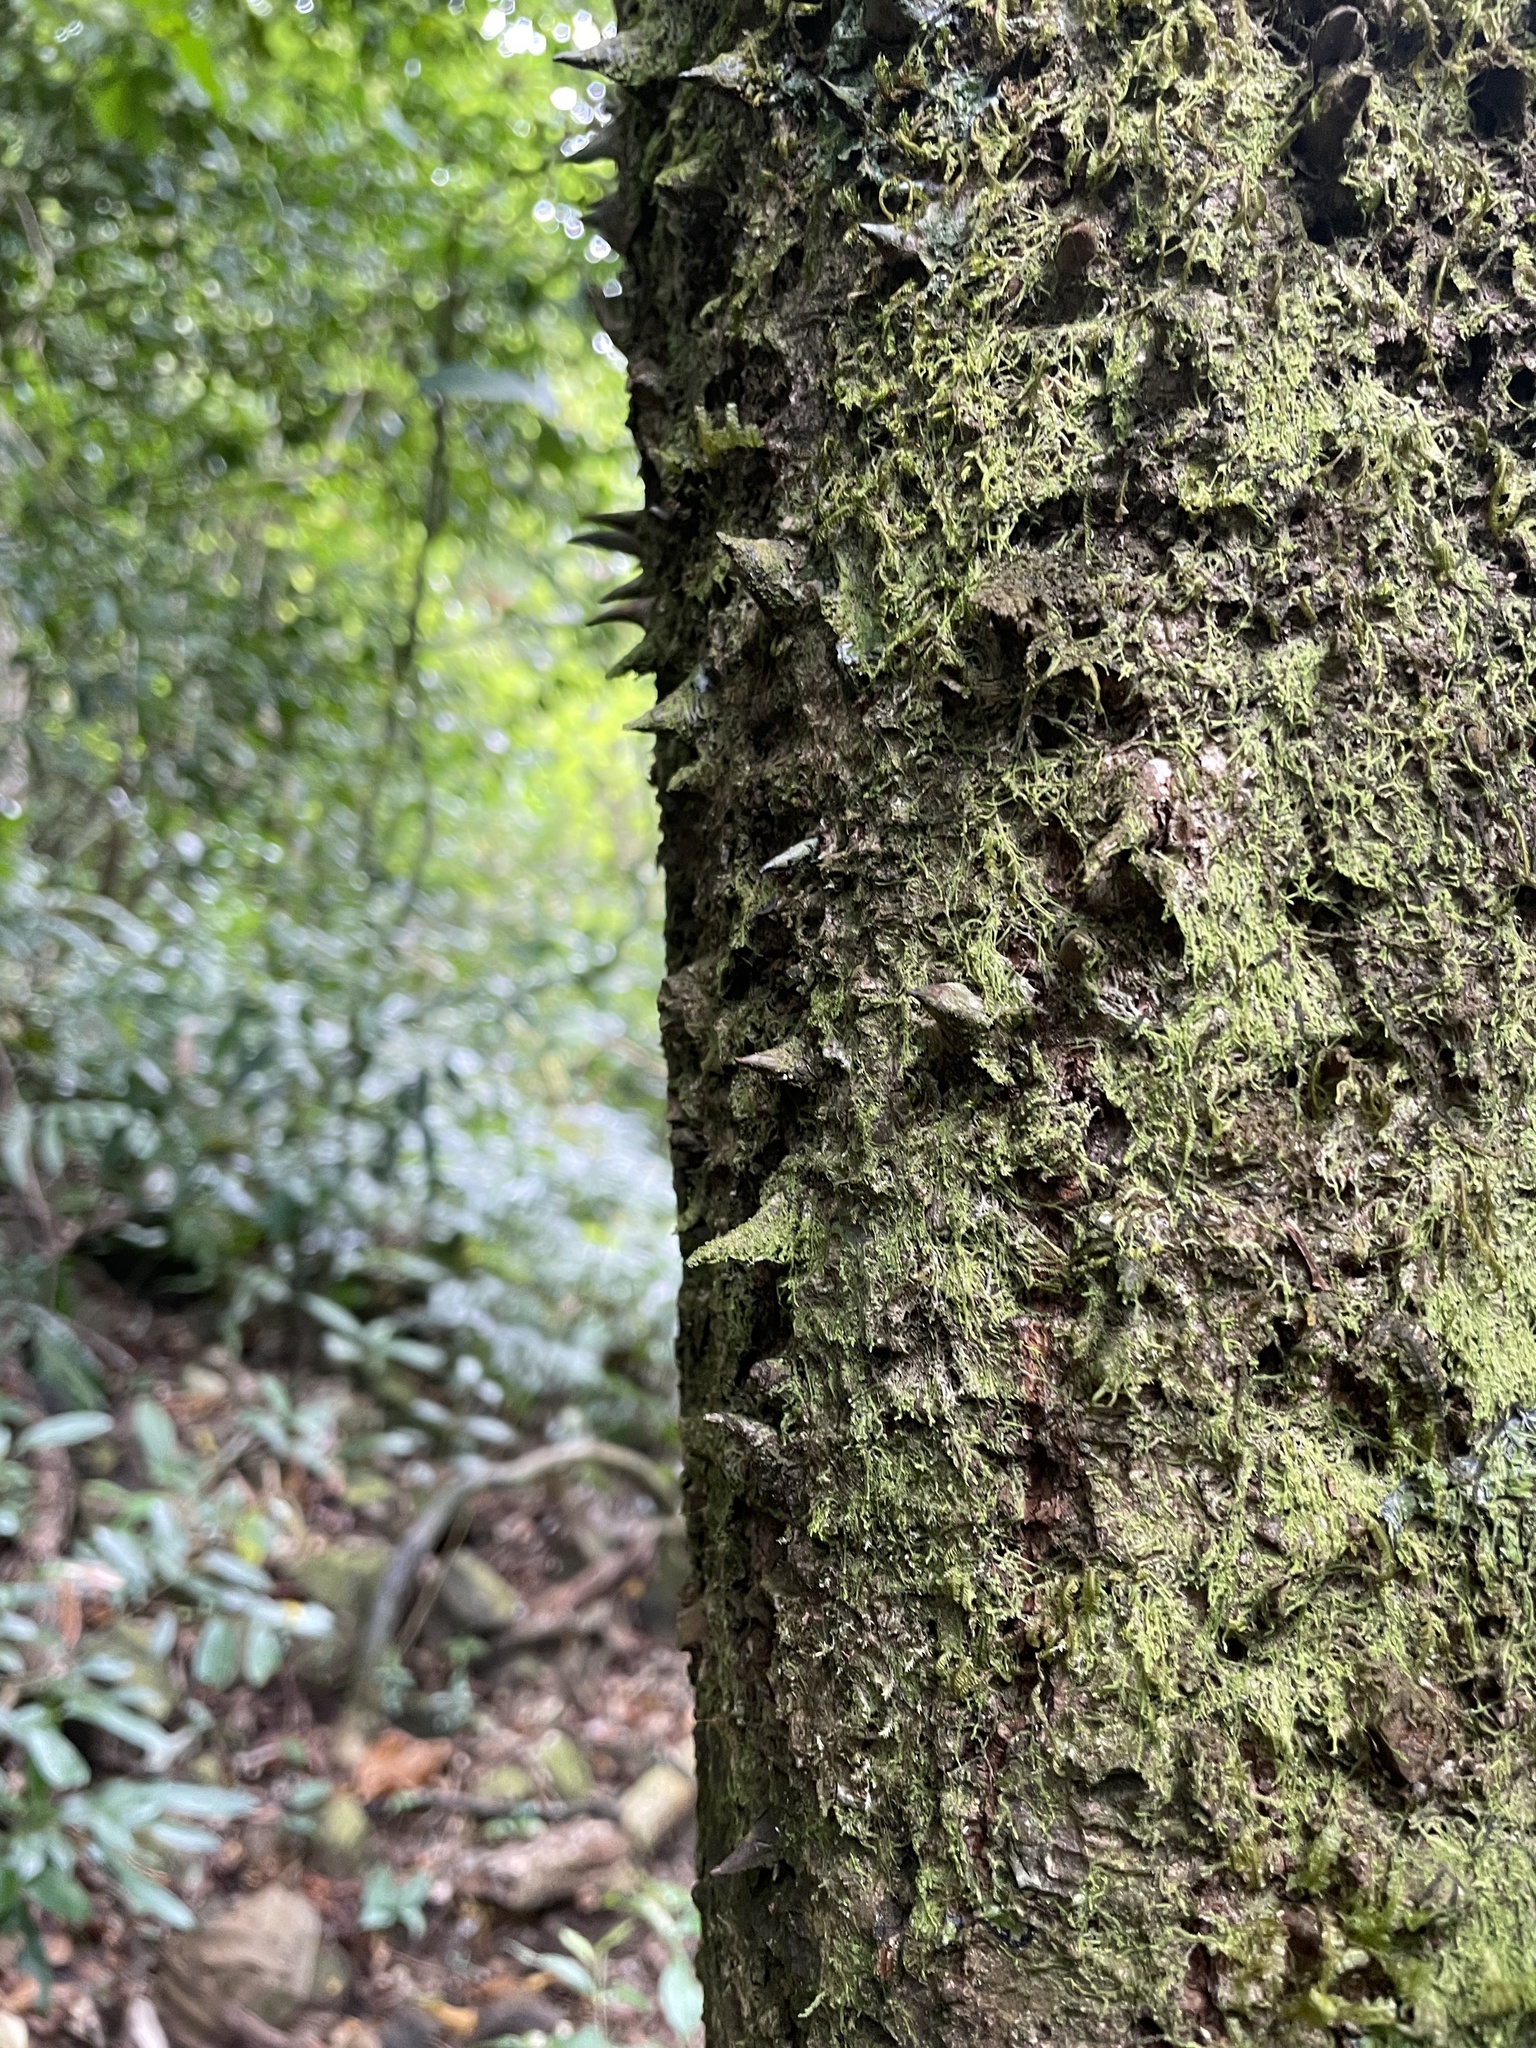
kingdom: Plantae
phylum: Tracheophyta
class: Magnoliopsida
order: Malvales
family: Malvaceae
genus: Bombax
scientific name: Bombax ceiba
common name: Northern-cottonwood
